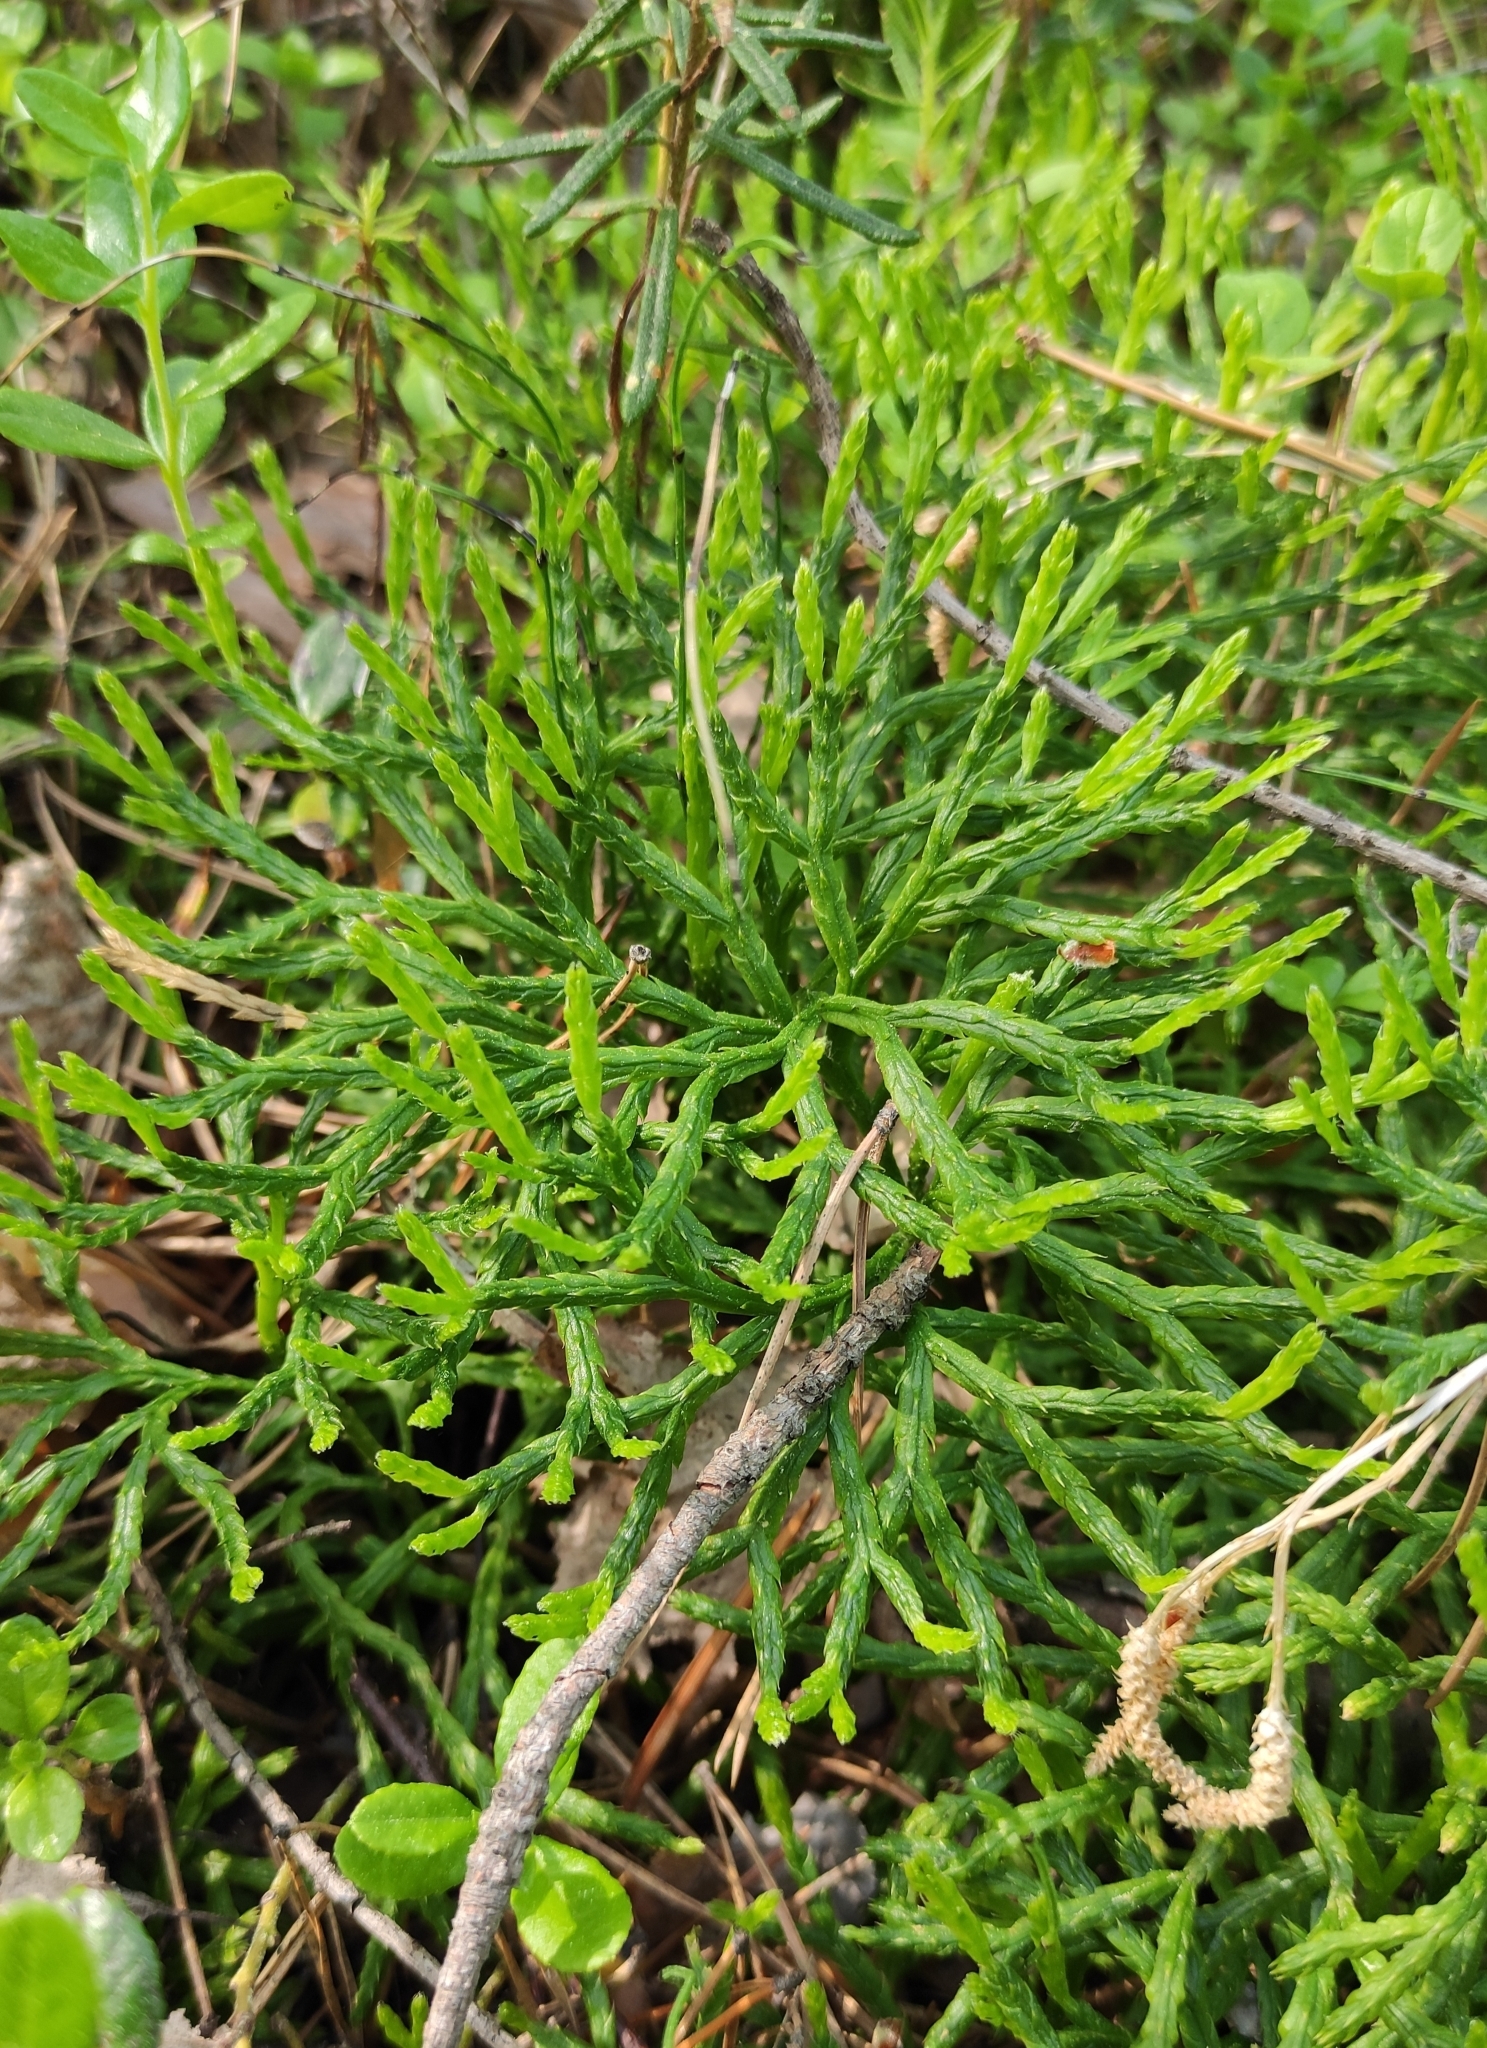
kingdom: Plantae
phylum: Tracheophyta
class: Lycopodiopsida
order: Lycopodiales
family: Lycopodiaceae
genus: Diphasiastrum
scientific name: Diphasiastrum complanatum
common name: Northern running-pine
